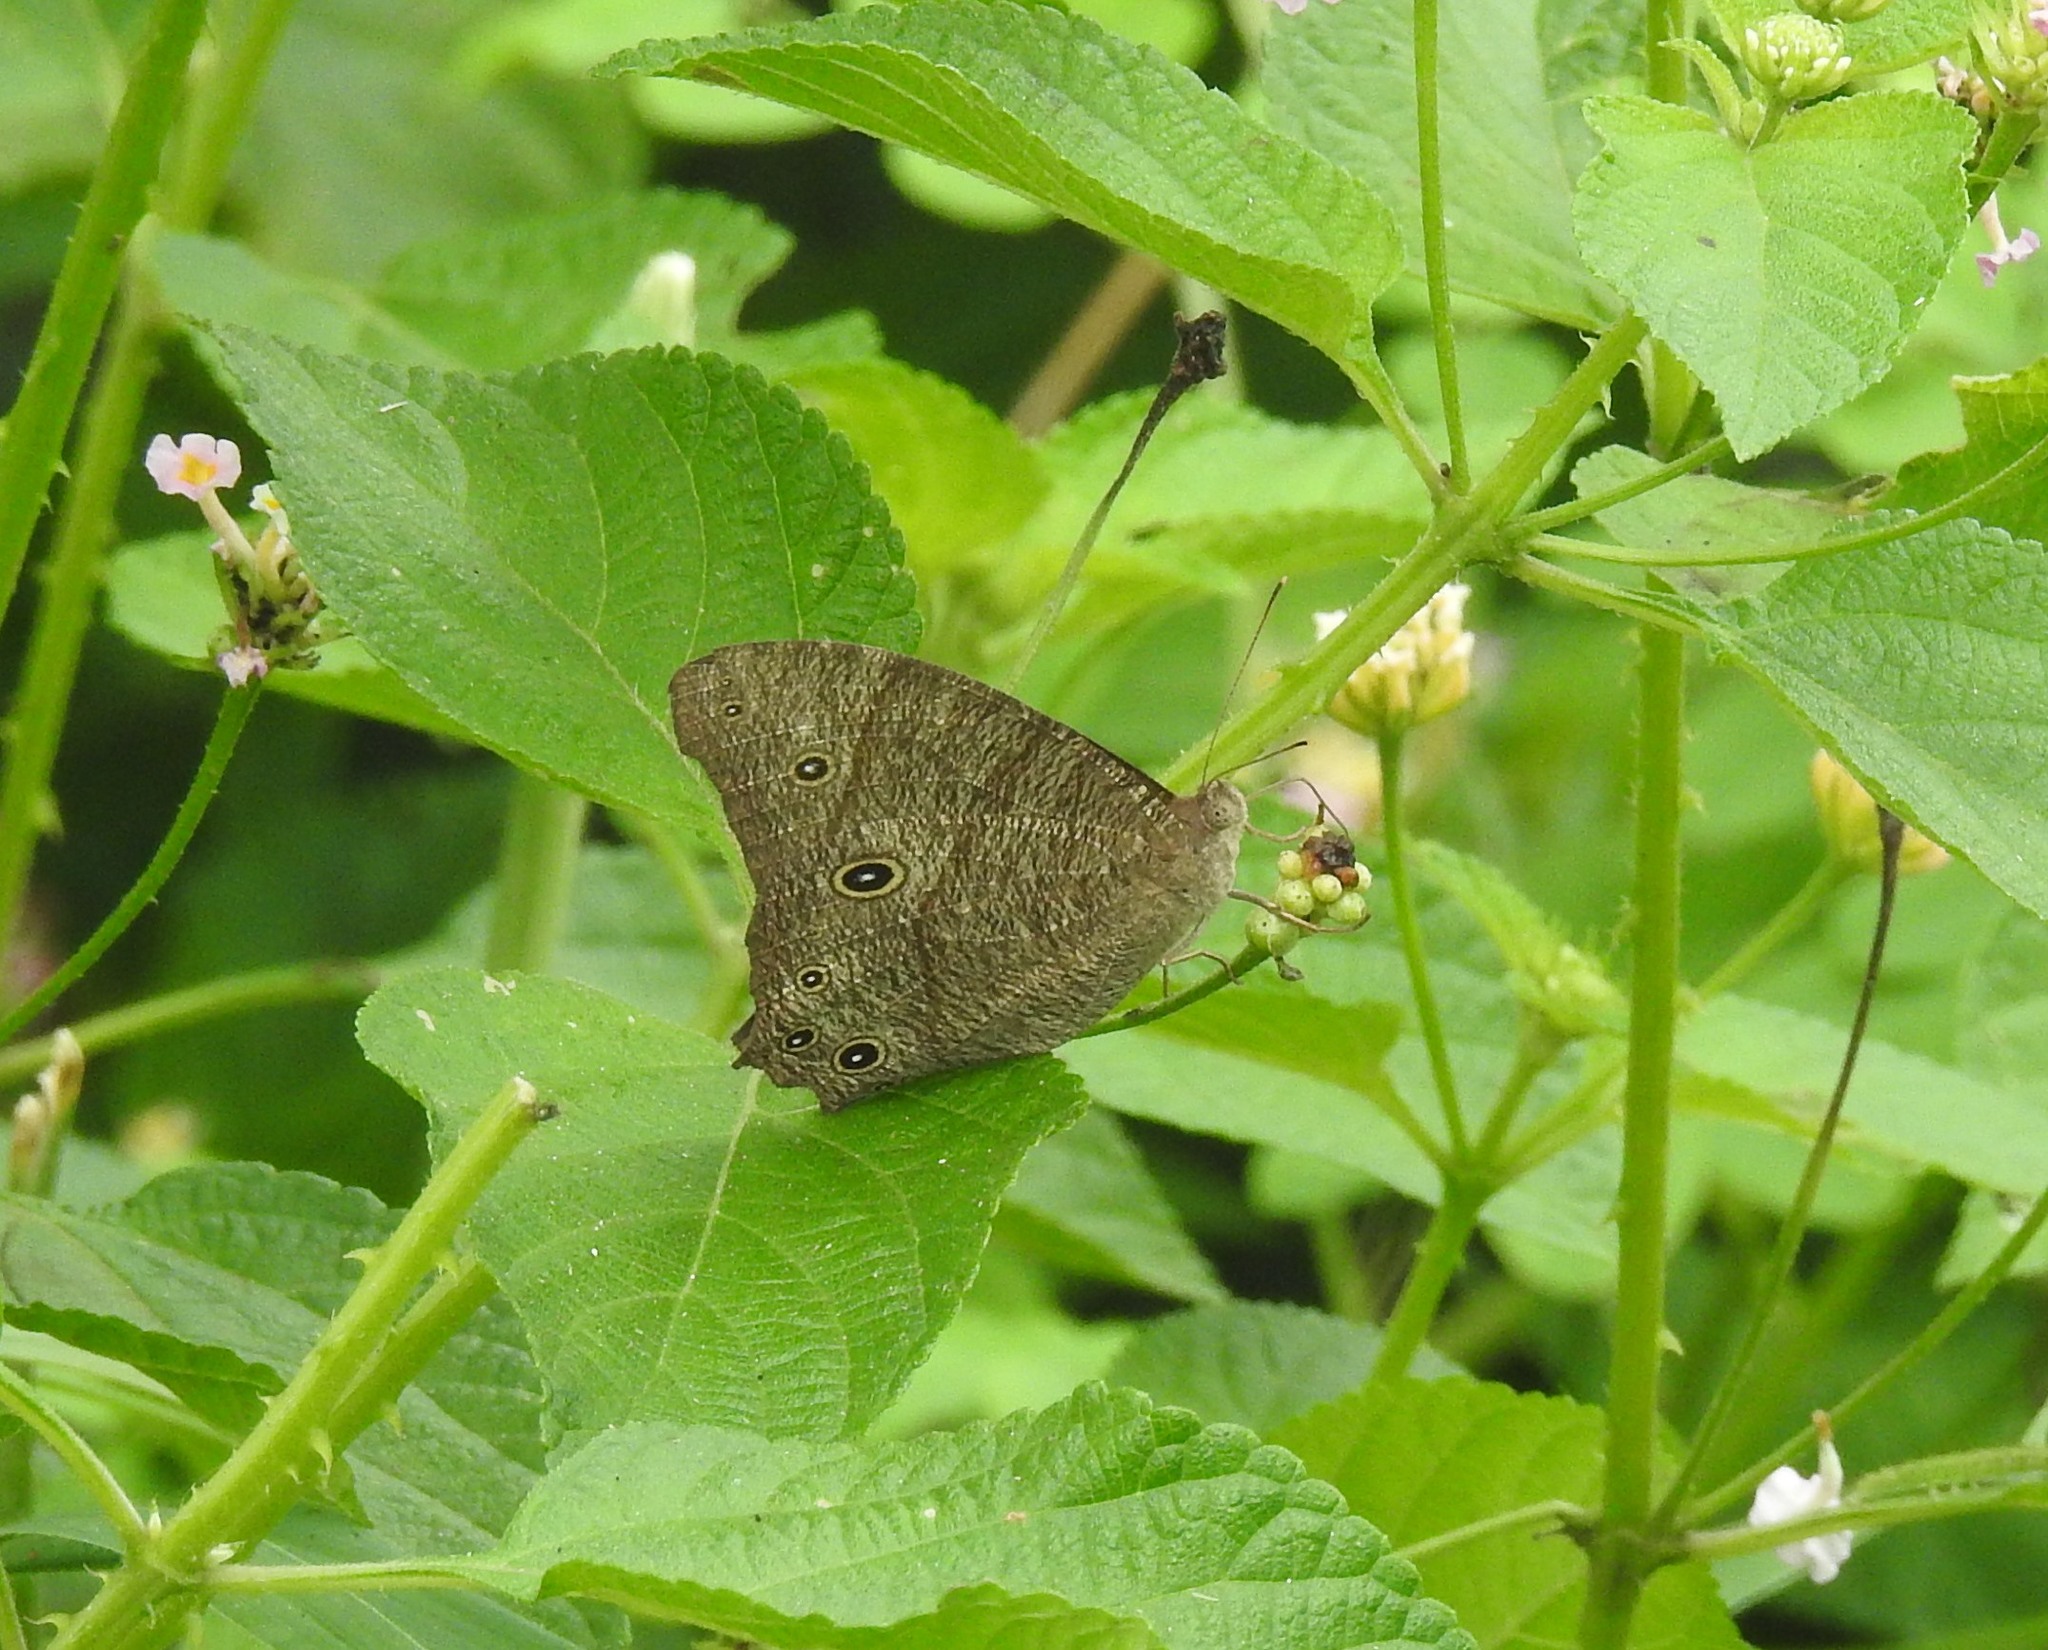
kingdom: Animalia
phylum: Arthropoda
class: Insecta
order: Lepidoptera
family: Nymphalidae
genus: Melanitis
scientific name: Melanitis leda
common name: Twilight brown
